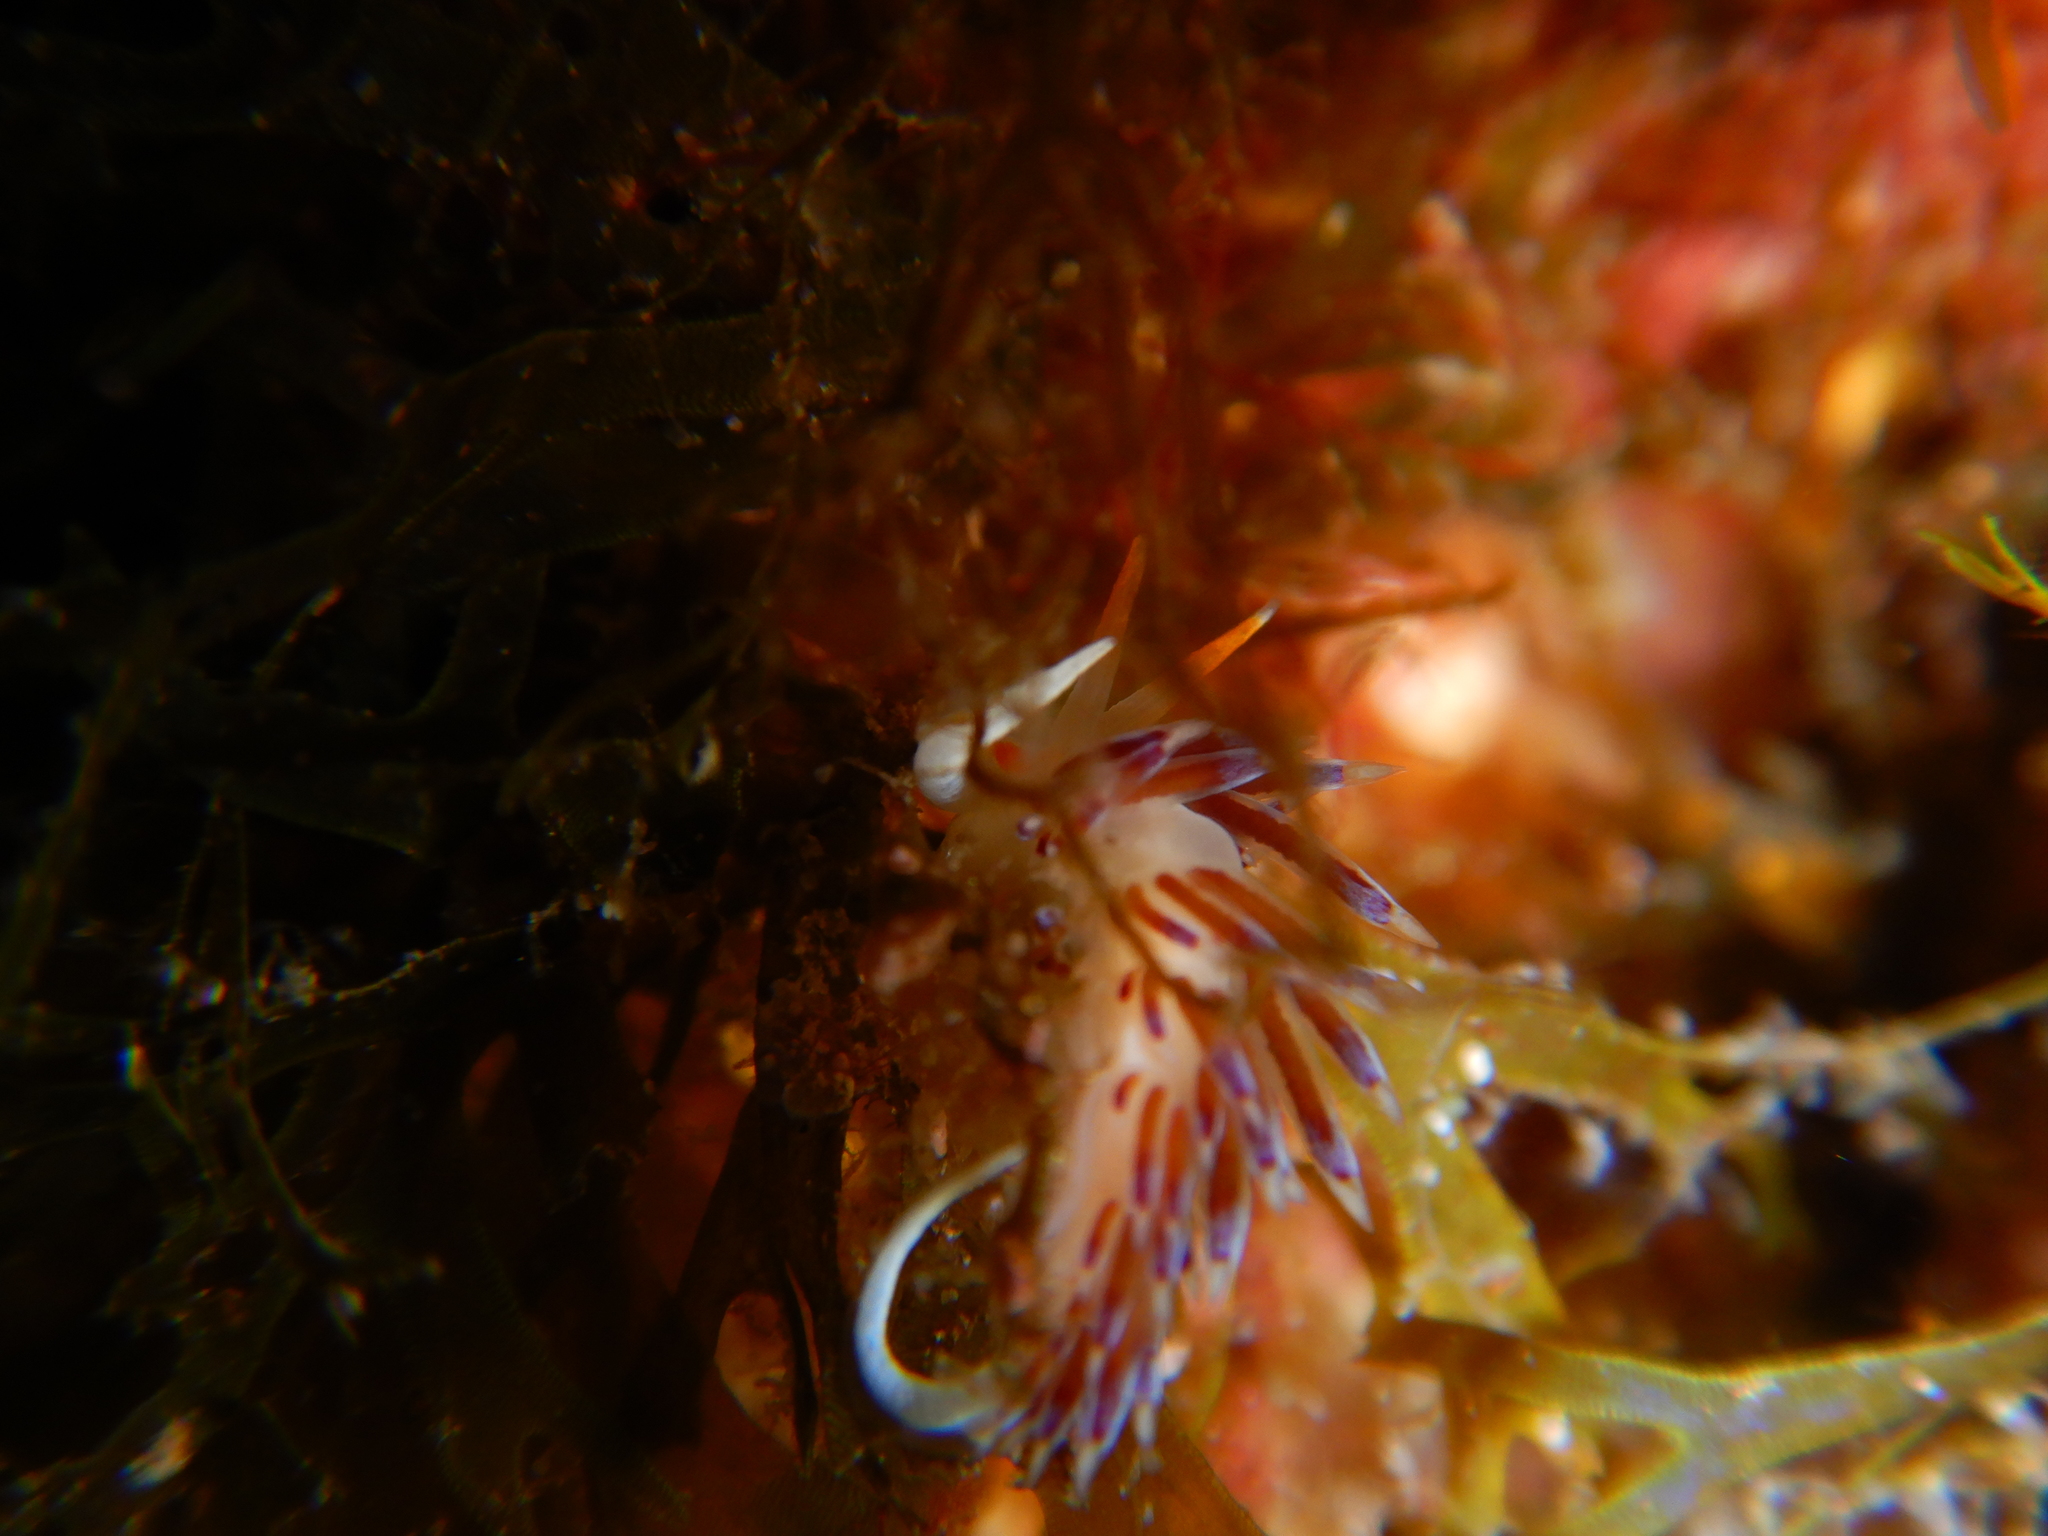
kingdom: Animalia
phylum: Mollusca
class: Gastropoda
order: Nudibranchia
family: Facelinidae
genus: Cratena
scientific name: Cratena peregrina
